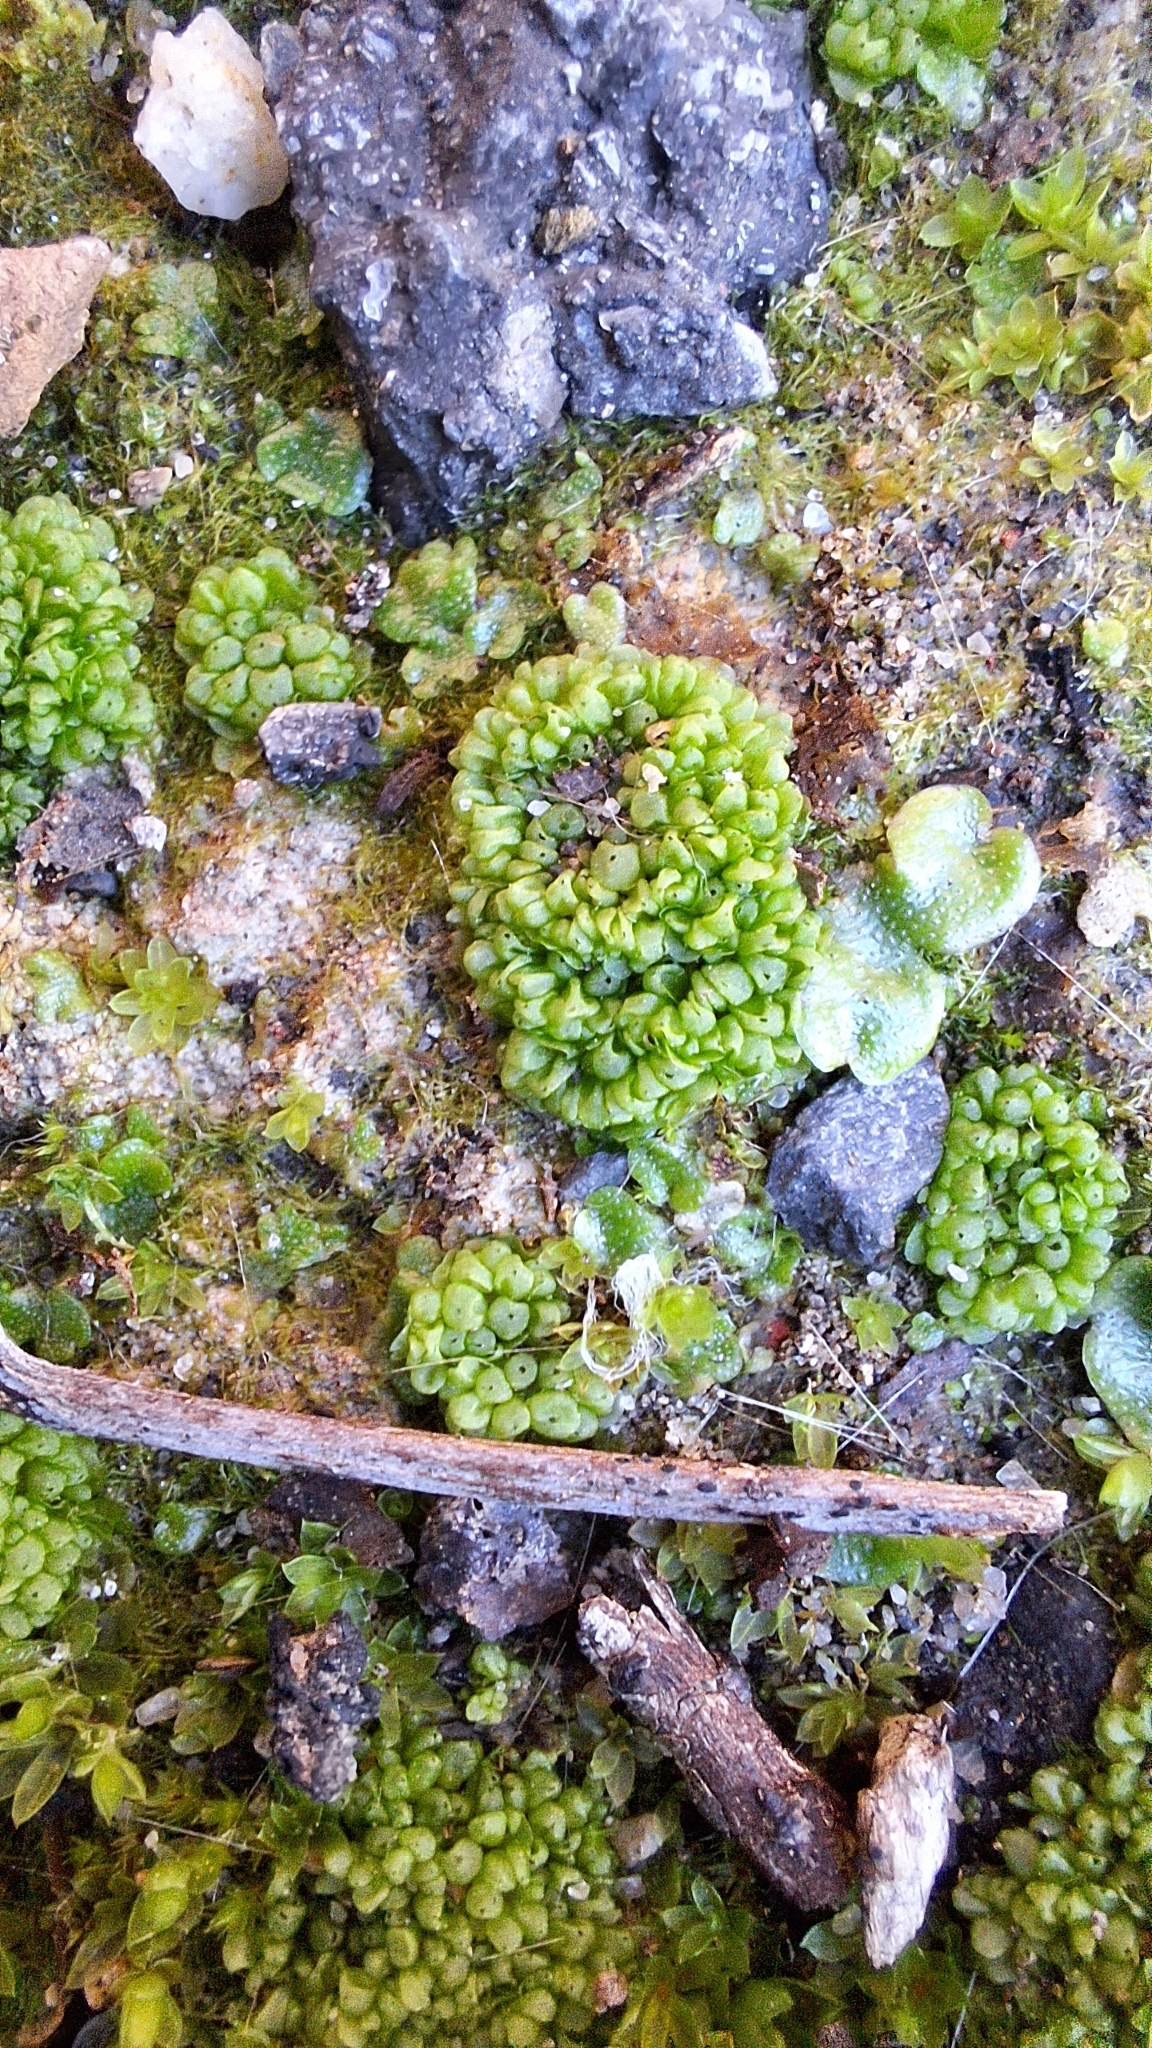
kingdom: Plantae
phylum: Marchantiophyta
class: Marchantiopsida
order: Sphaerocarpales
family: Sphaerocarpaceae
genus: Sphaerocarpos
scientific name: Sphaerocarpos texanus
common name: Texas balloonwort
